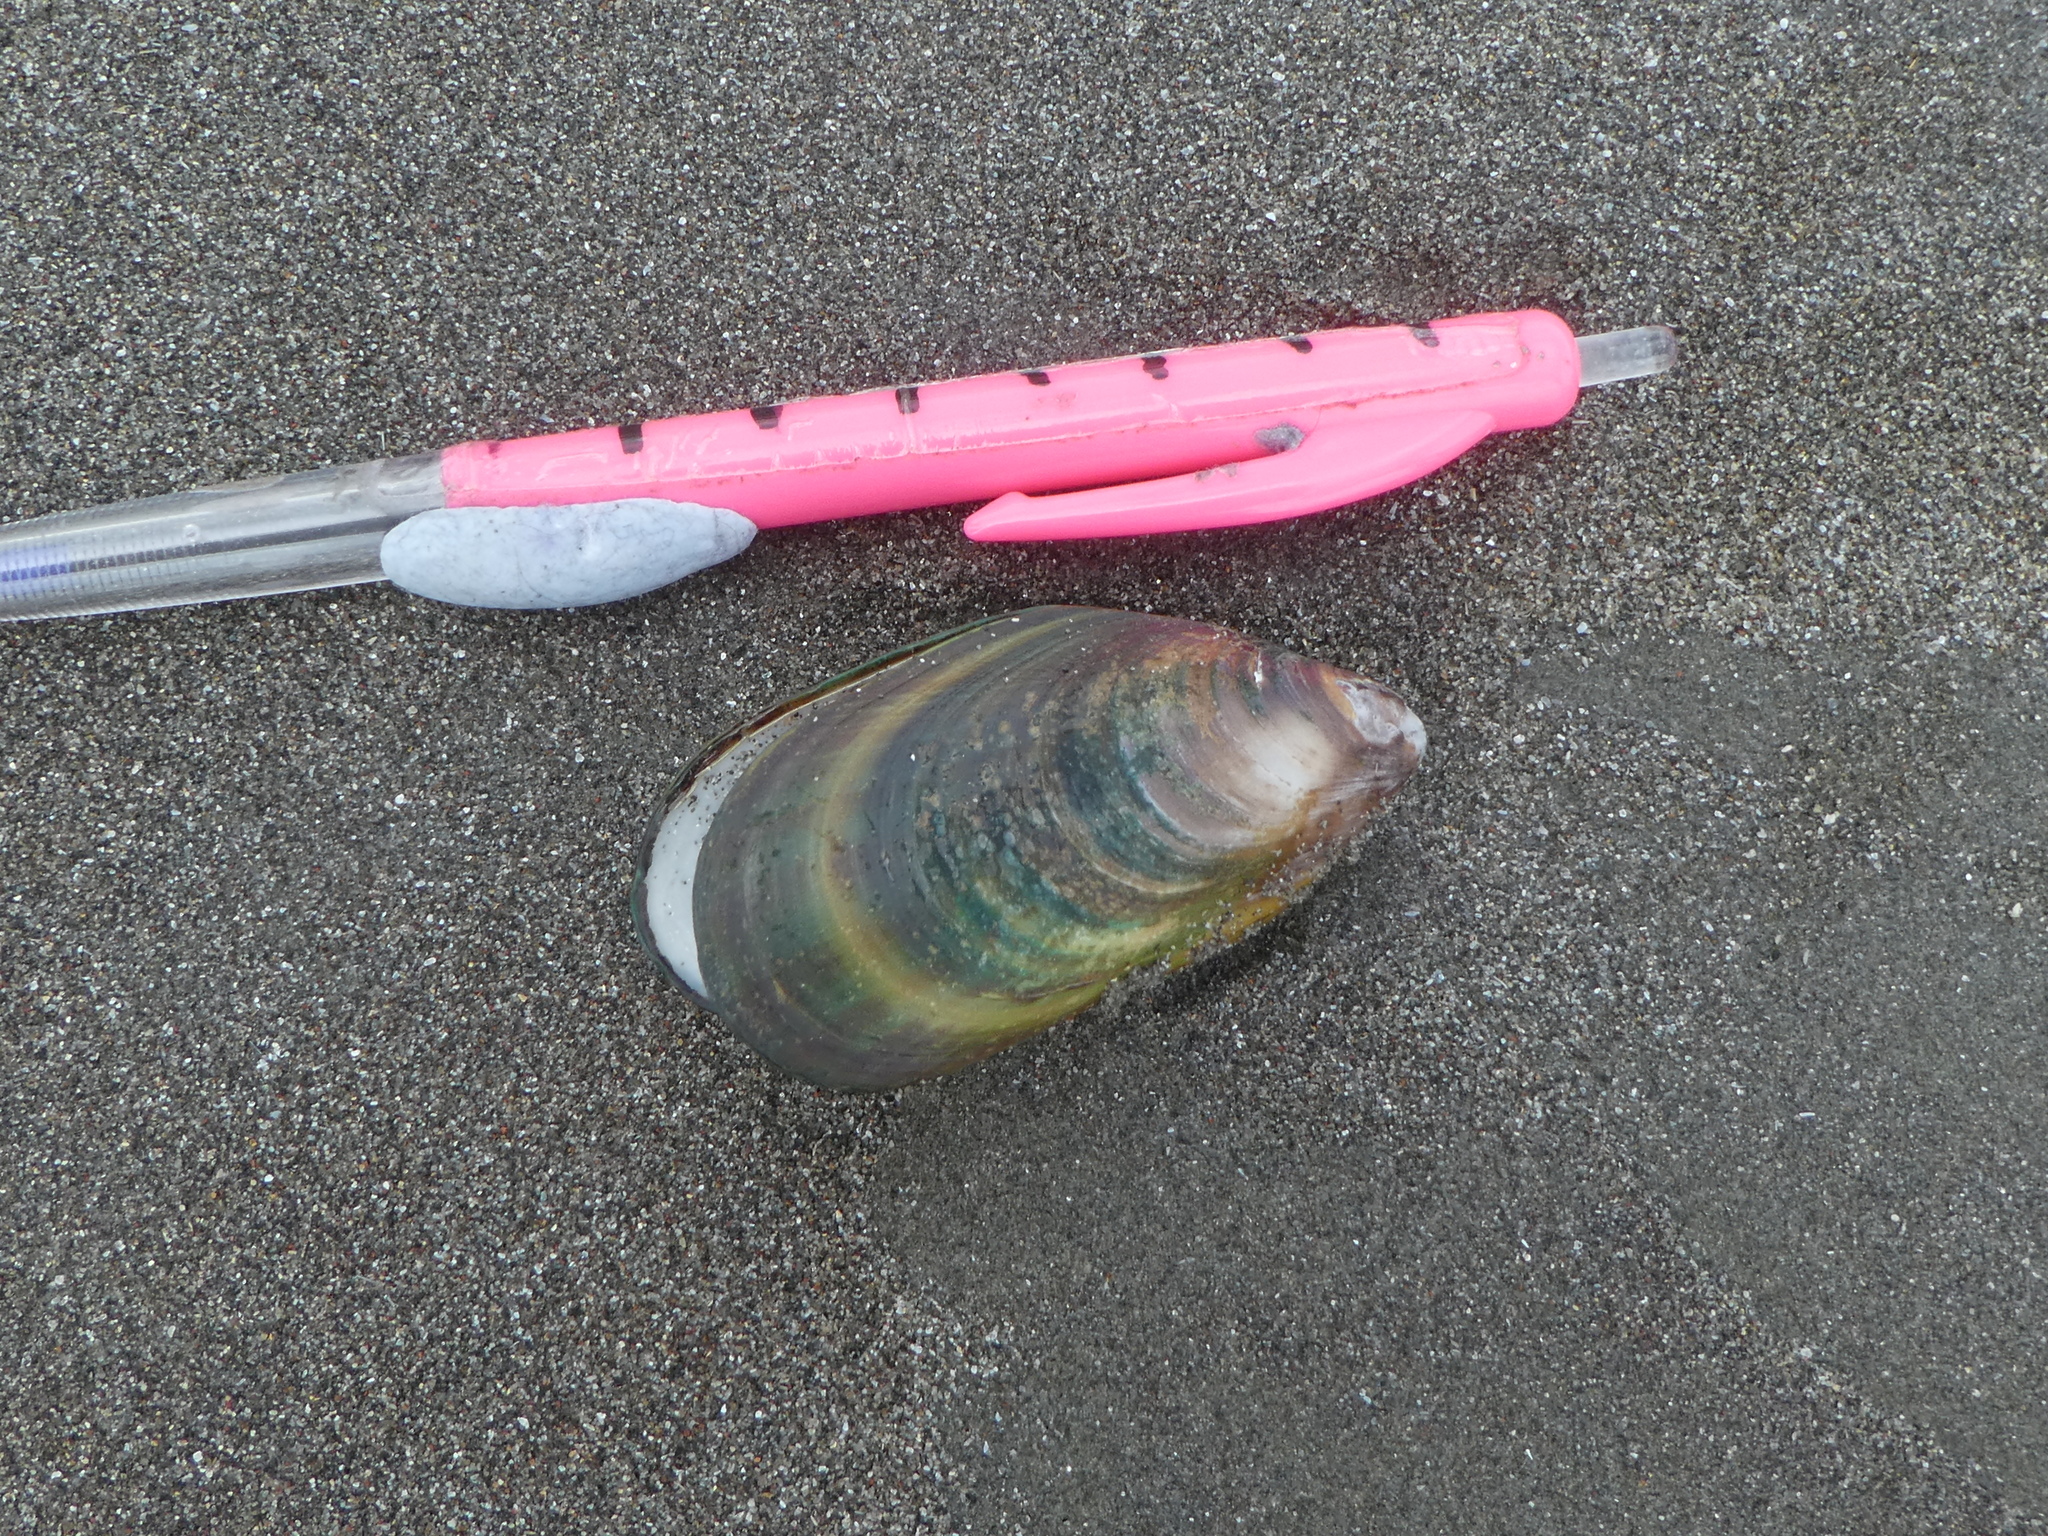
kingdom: Animalia
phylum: Mollusca
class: Bivalvia
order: Mytilida
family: Mytilidae
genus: Perna
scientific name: Perna canaliculus
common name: New zealand greenshelltm
